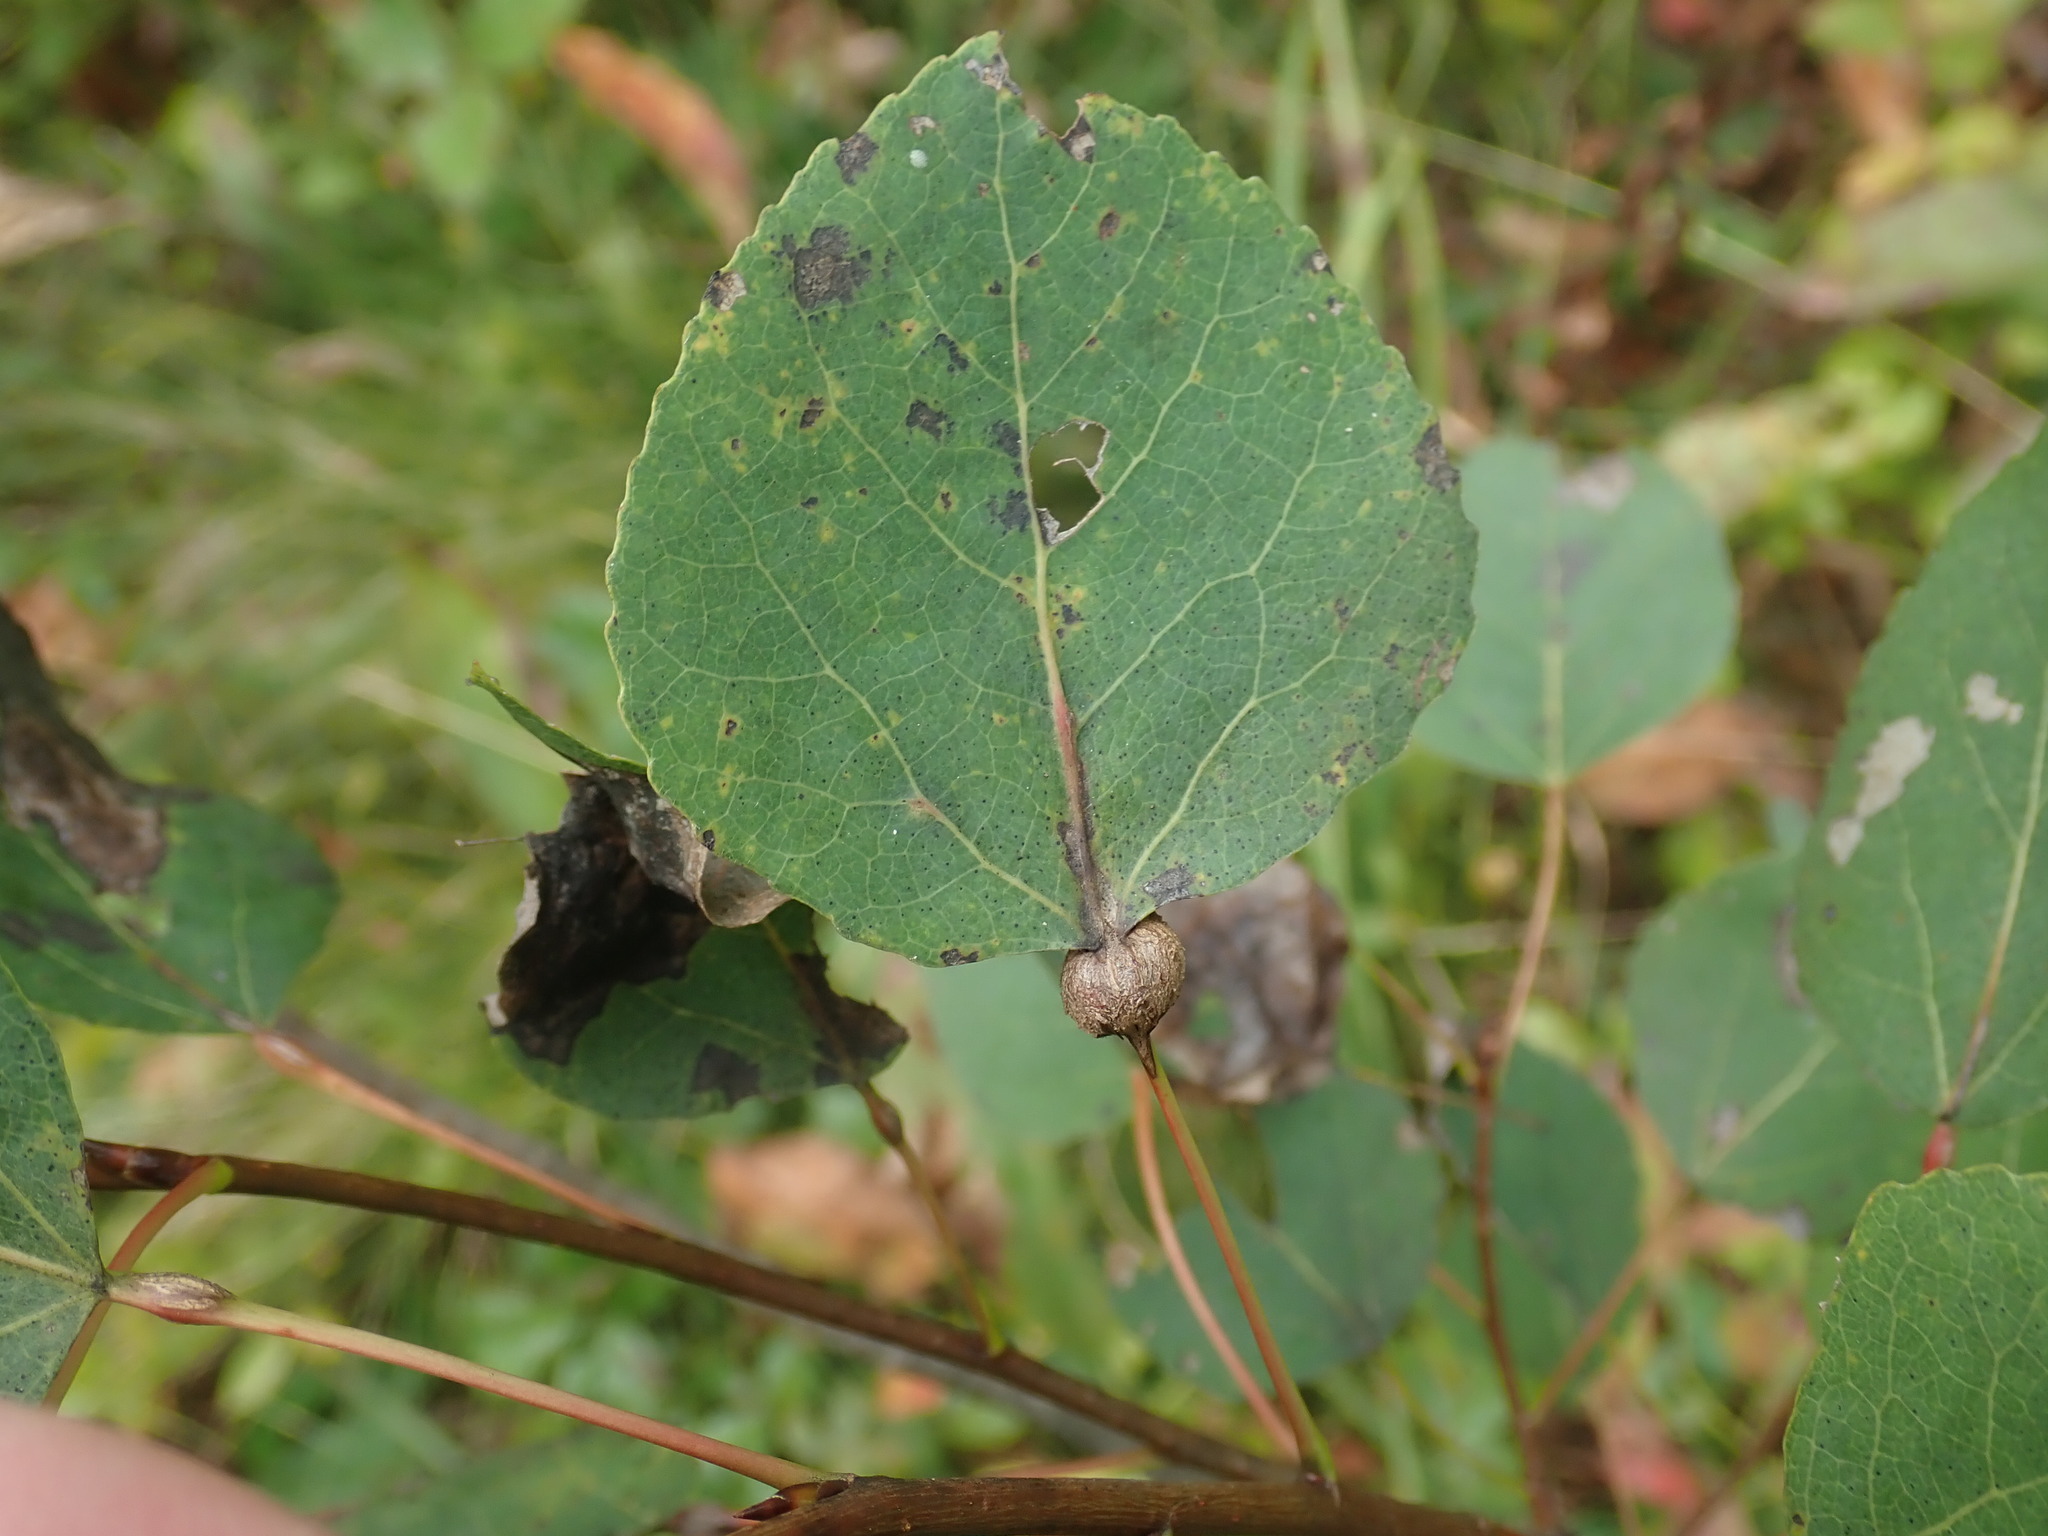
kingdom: Animalia
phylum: Arthropoda
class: Insecta
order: Lepidoptera
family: Nepticulidae
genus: Ectoedemia
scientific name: Ectoedemia populella
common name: Aspen petiole gall moth
